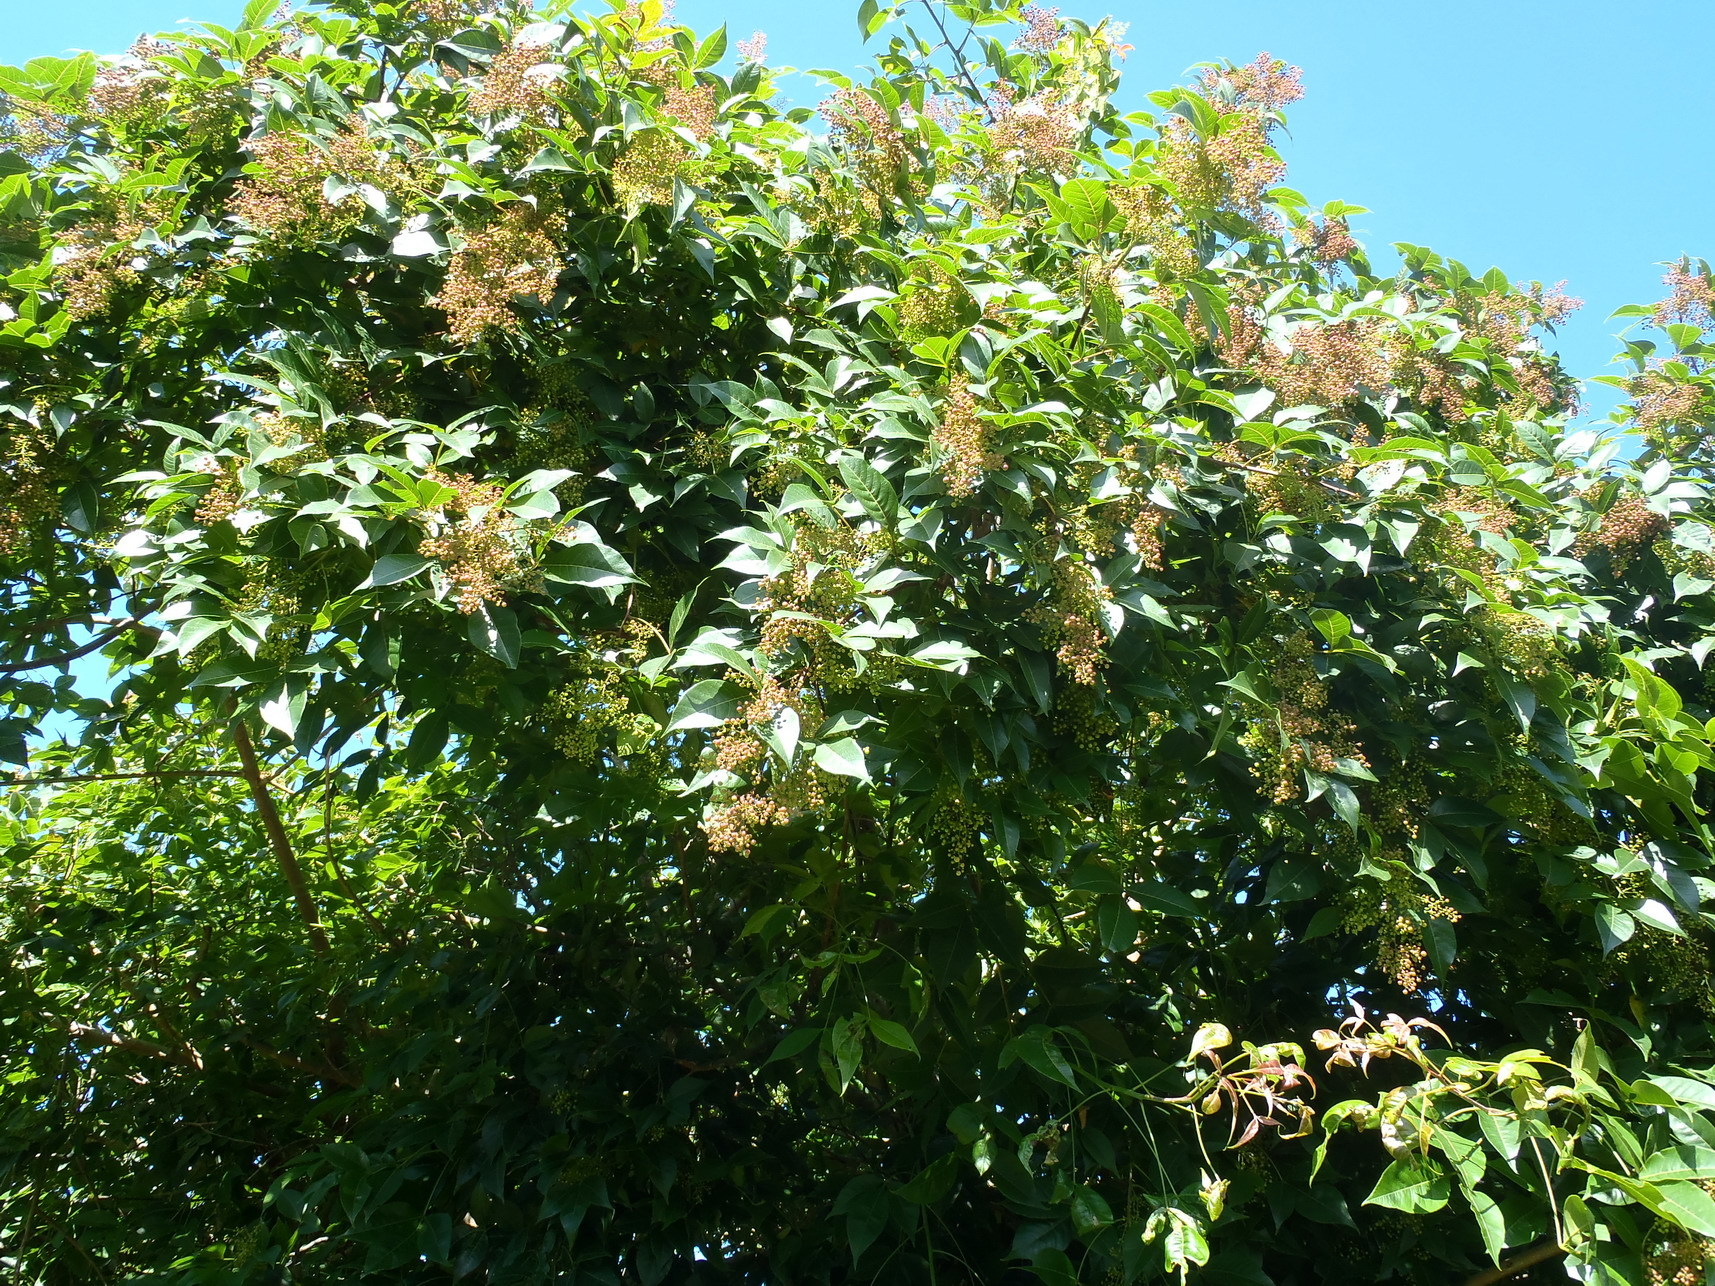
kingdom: Plantae
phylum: Tracheophyta
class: Magnoliopsida
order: Sapindales
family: Anacardiaceae
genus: Searsia
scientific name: Searsia chirindensis
